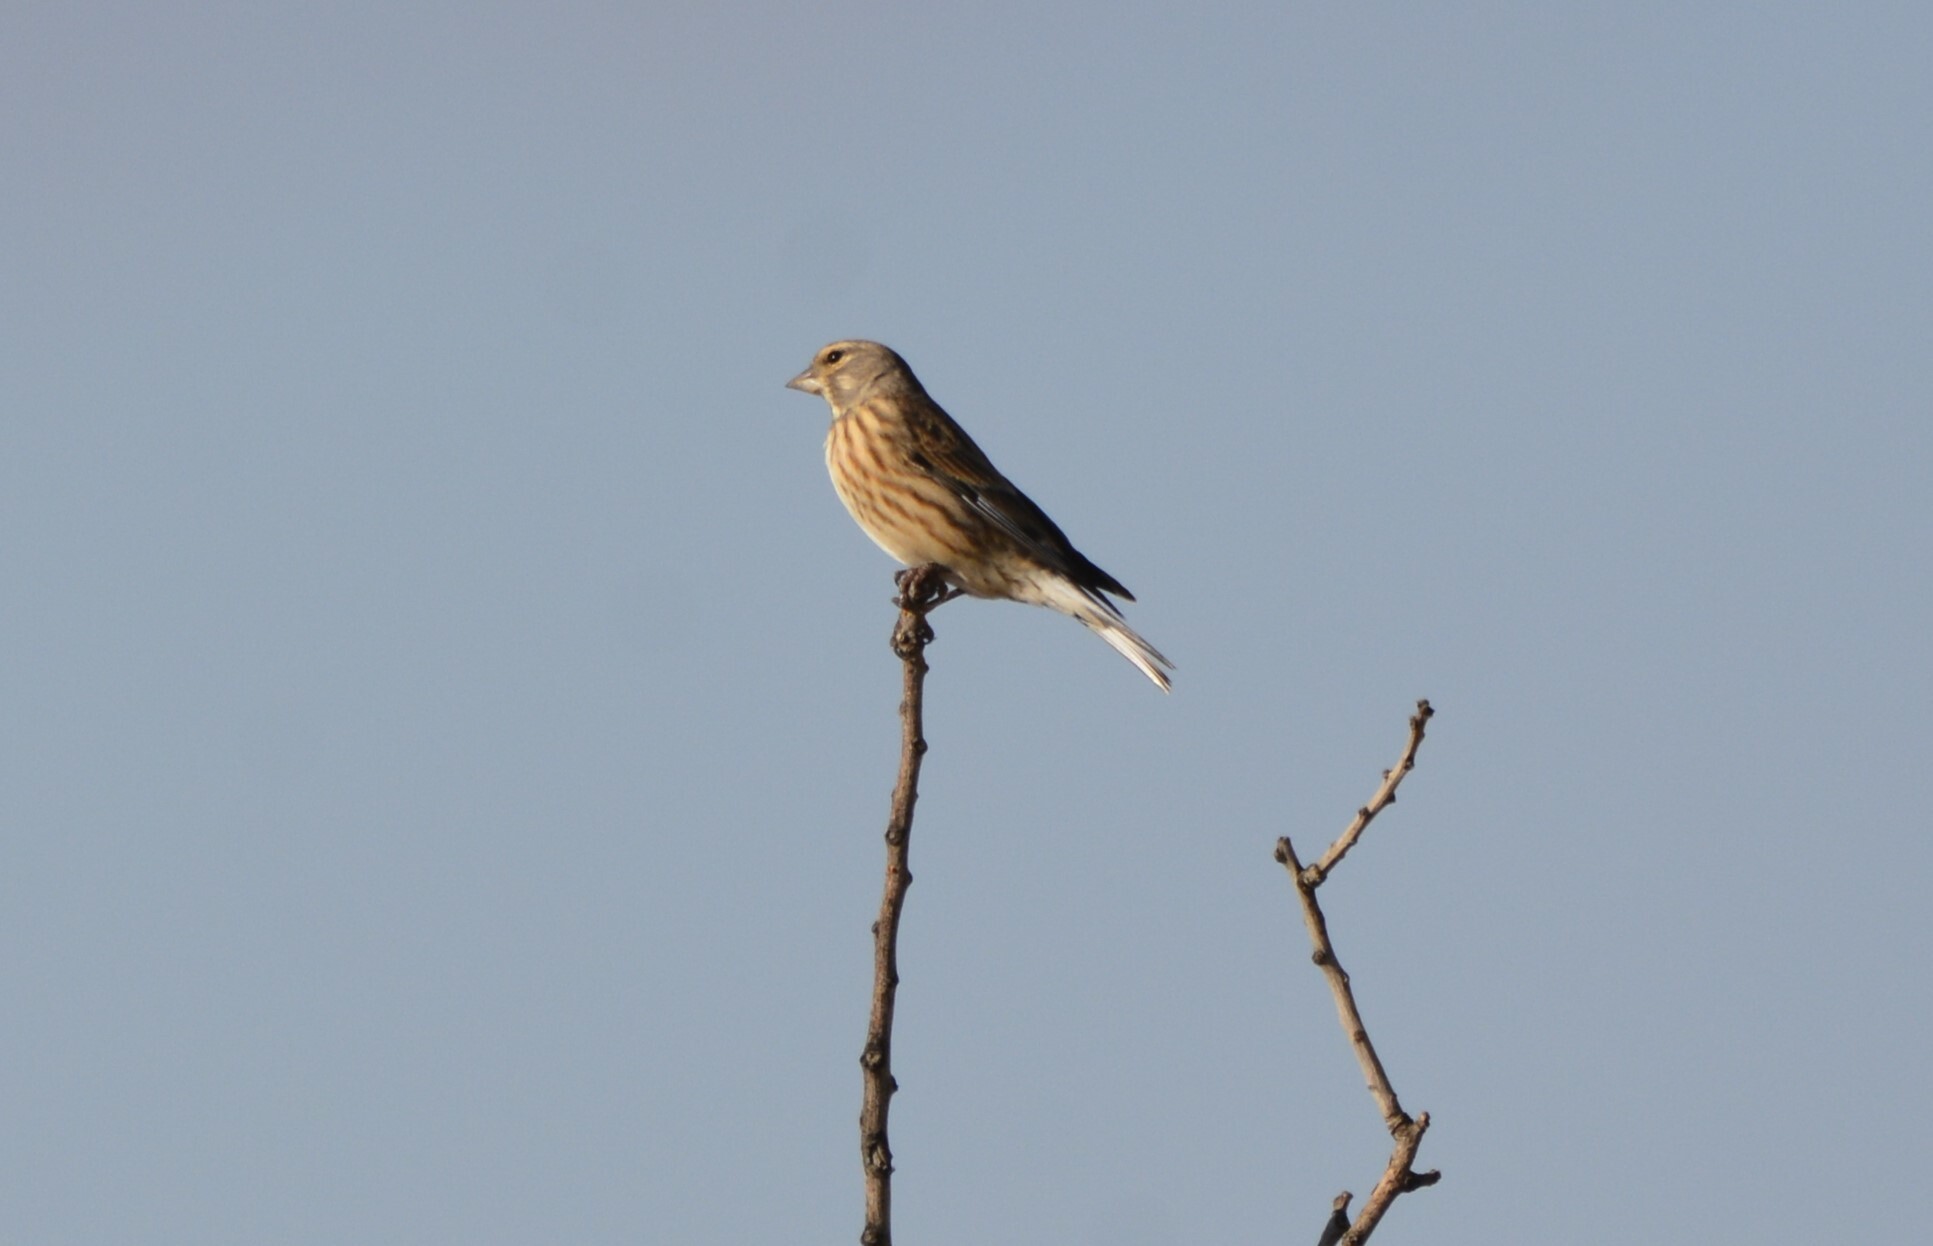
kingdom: Animalia
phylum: Chordata
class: Aves
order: Passeriformes
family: Fringillidae
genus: Linaria
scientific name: Linaria cannabina
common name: Common linnet
